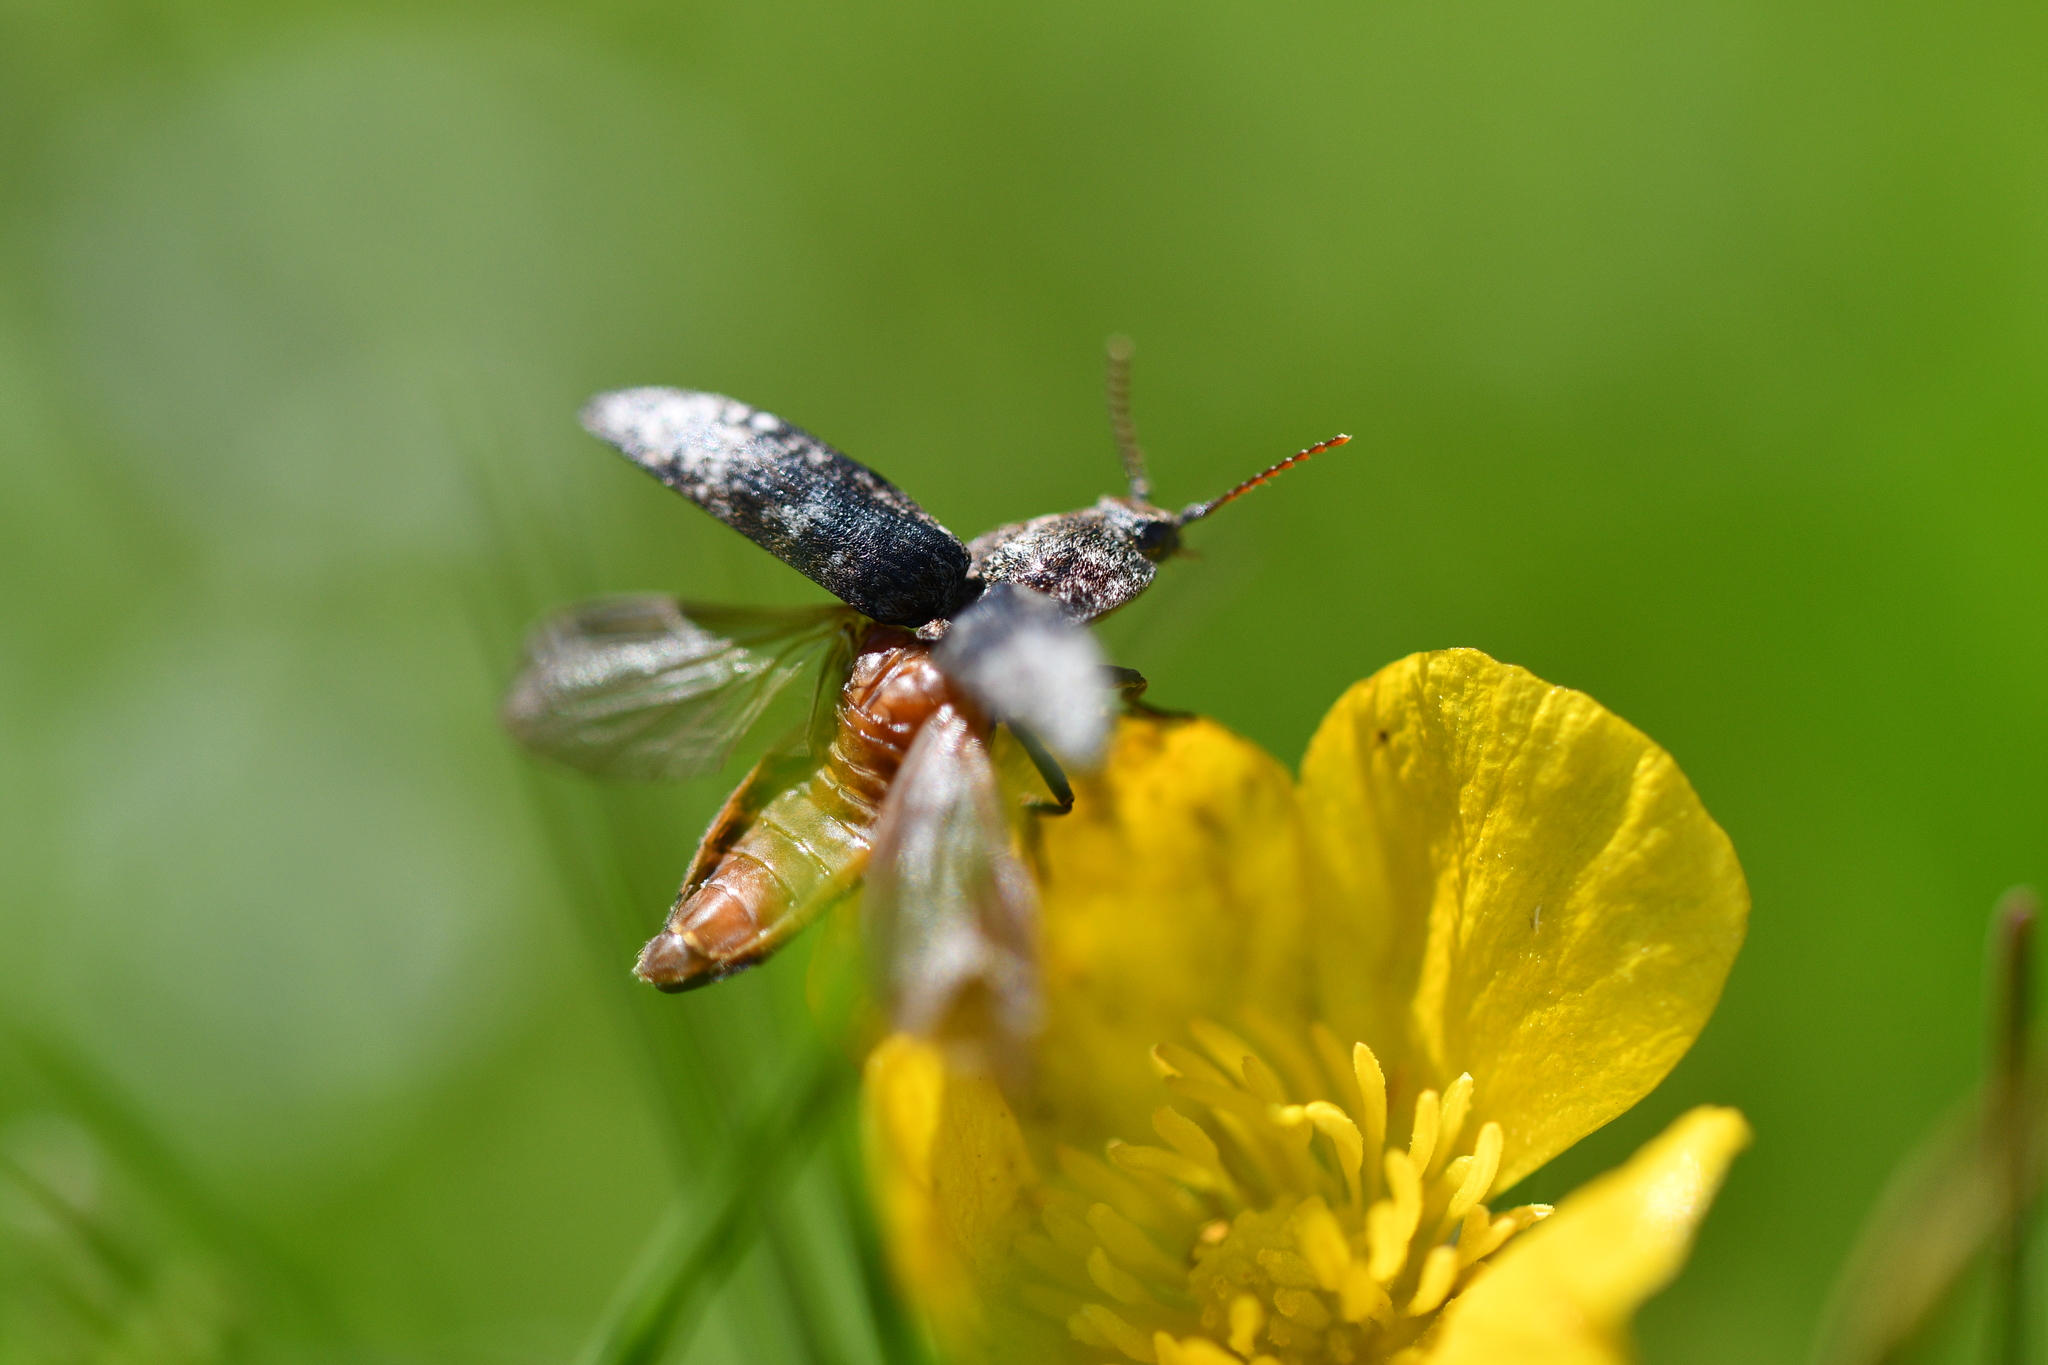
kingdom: Animalia
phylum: Arthropoda
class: Insecta
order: Coleoptera
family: Elateridae
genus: Agrypnus
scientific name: Agrypnus murinus
